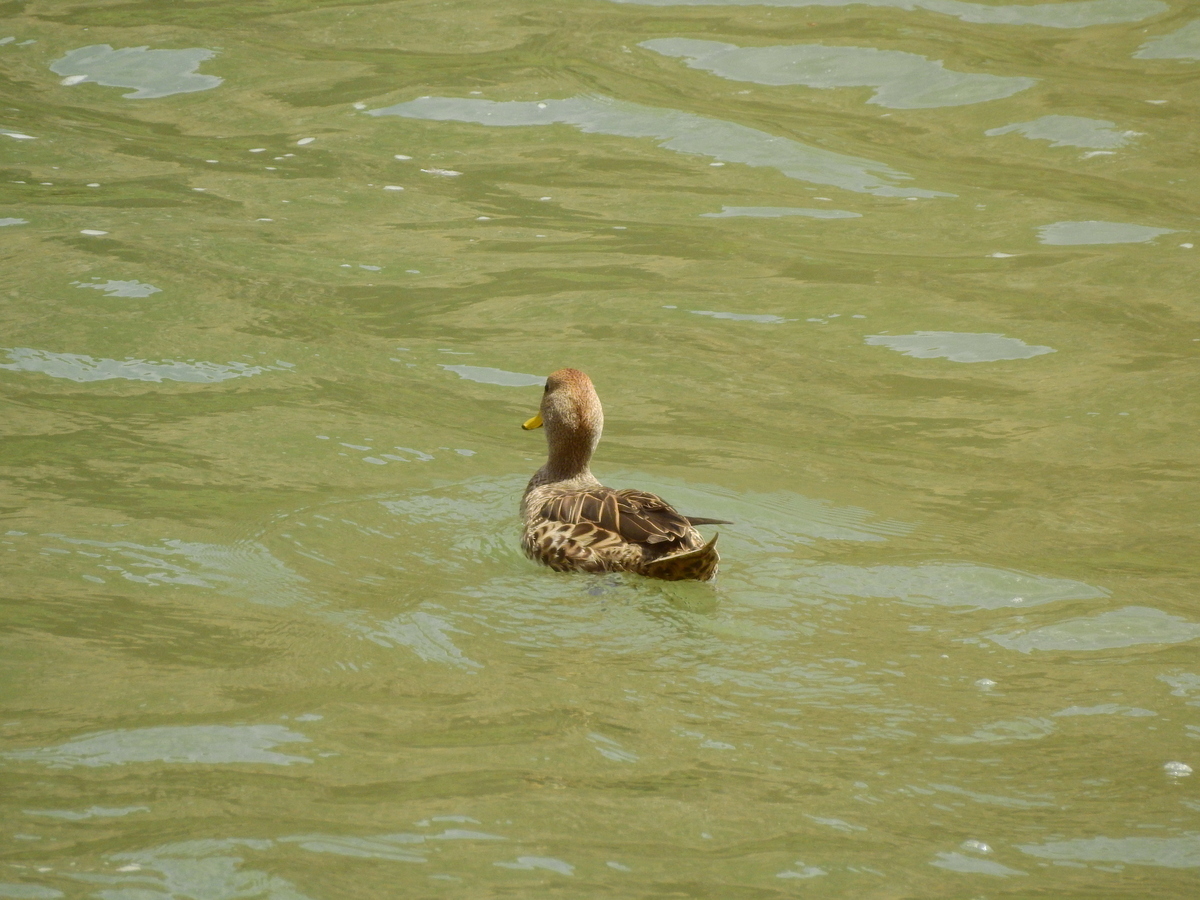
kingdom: Animalia
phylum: Chordata
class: Aves
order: Anseriformes
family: Anatidae
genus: Anas
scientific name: Anas georgica
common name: Yellow-billed pintail
